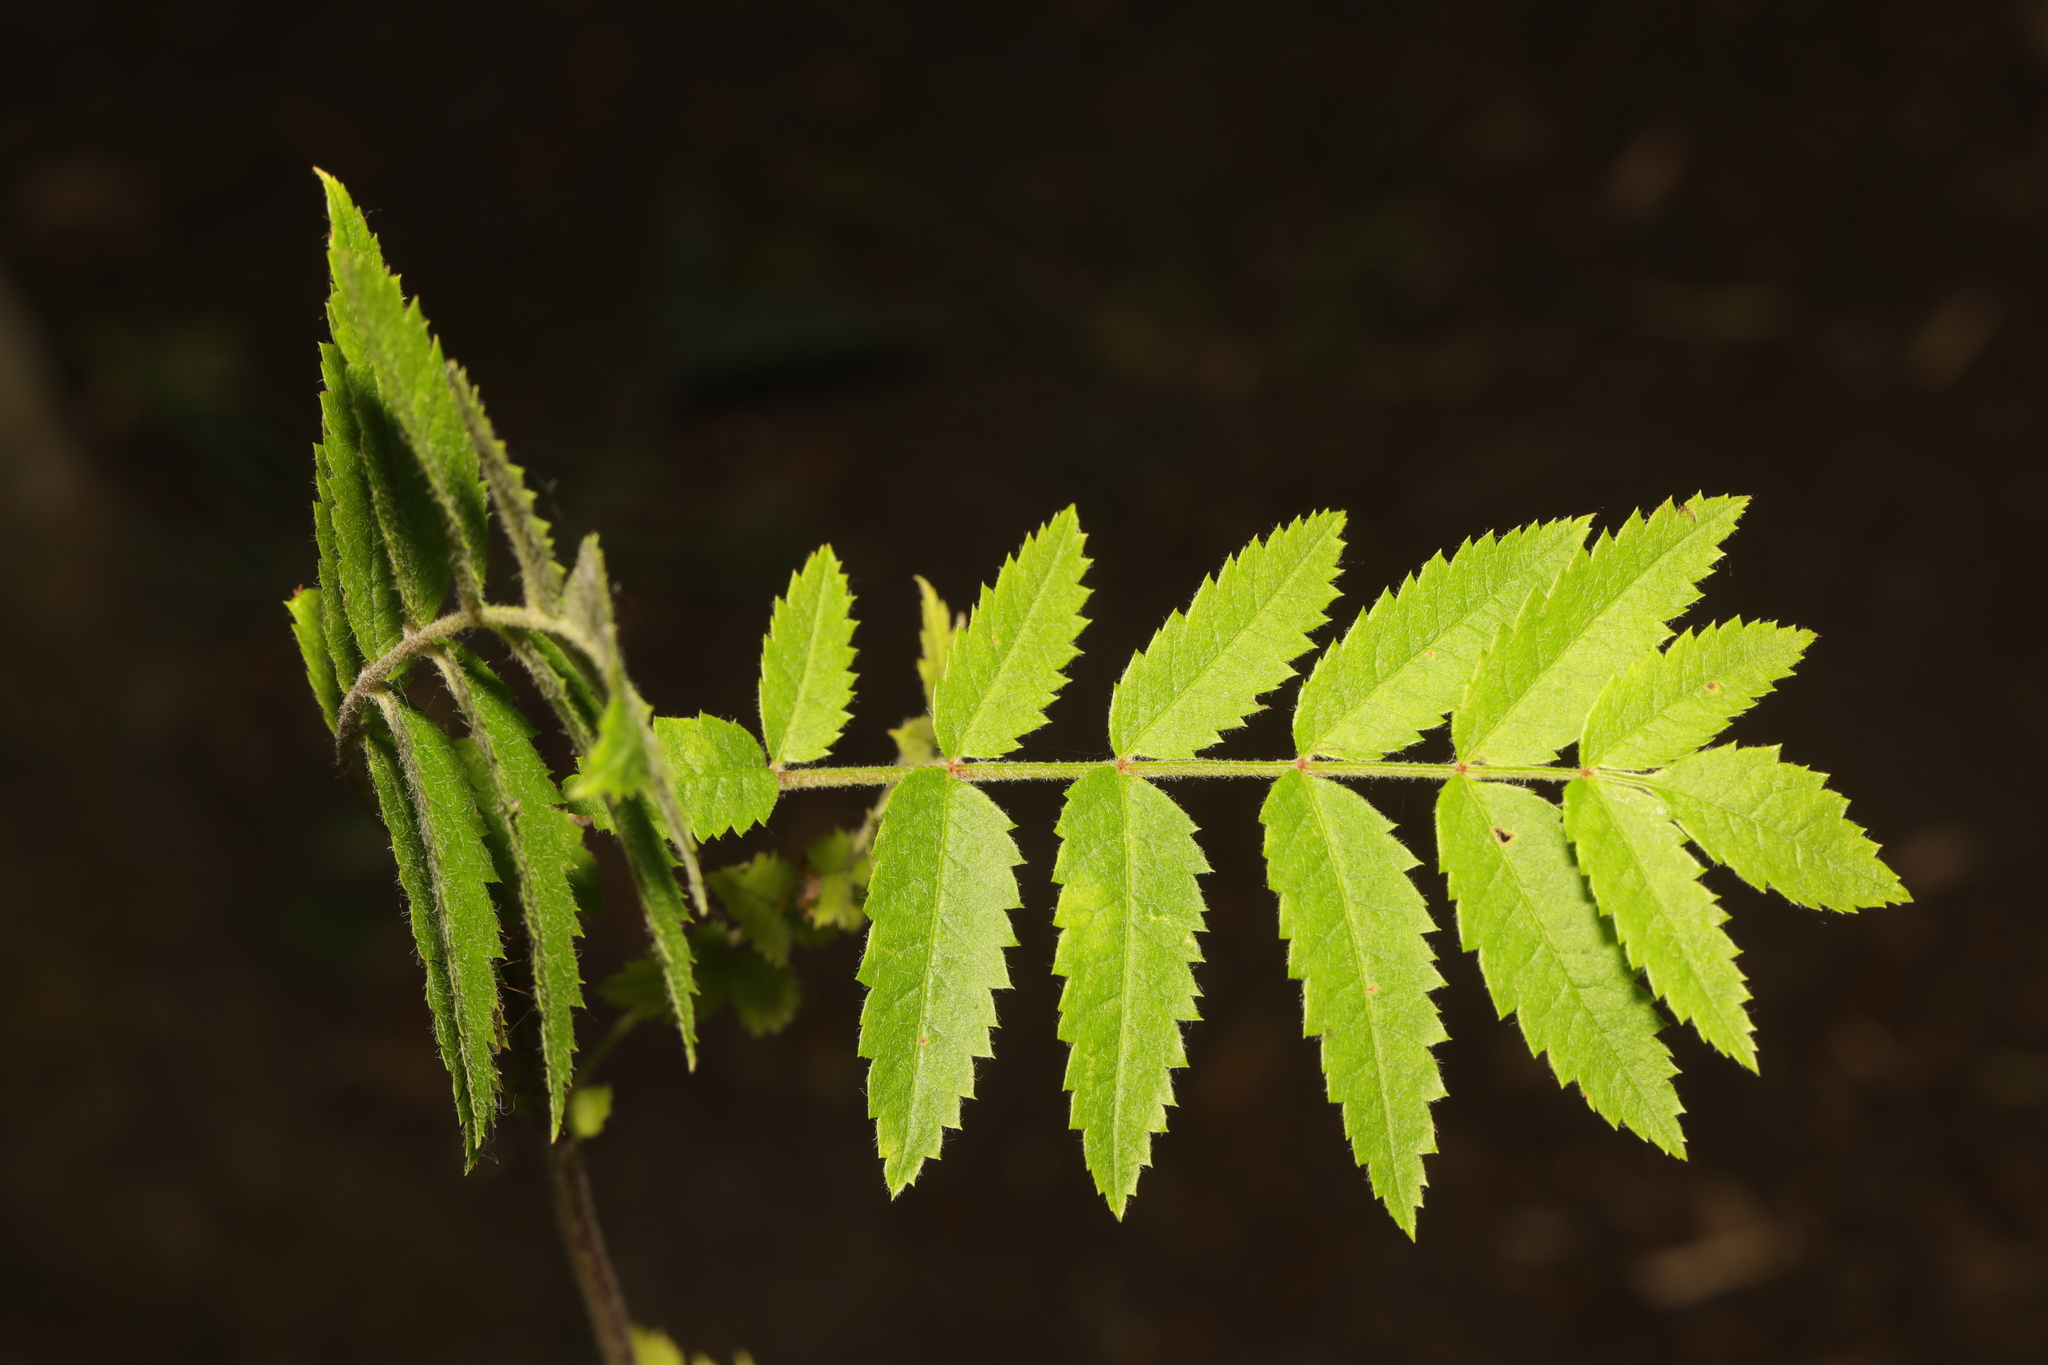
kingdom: Plantae
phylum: Tracheophyta
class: Magnoliopsida
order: Rosales
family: Rosaceae
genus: Sorbus
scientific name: Sorbus aucuparia
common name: Rowan
